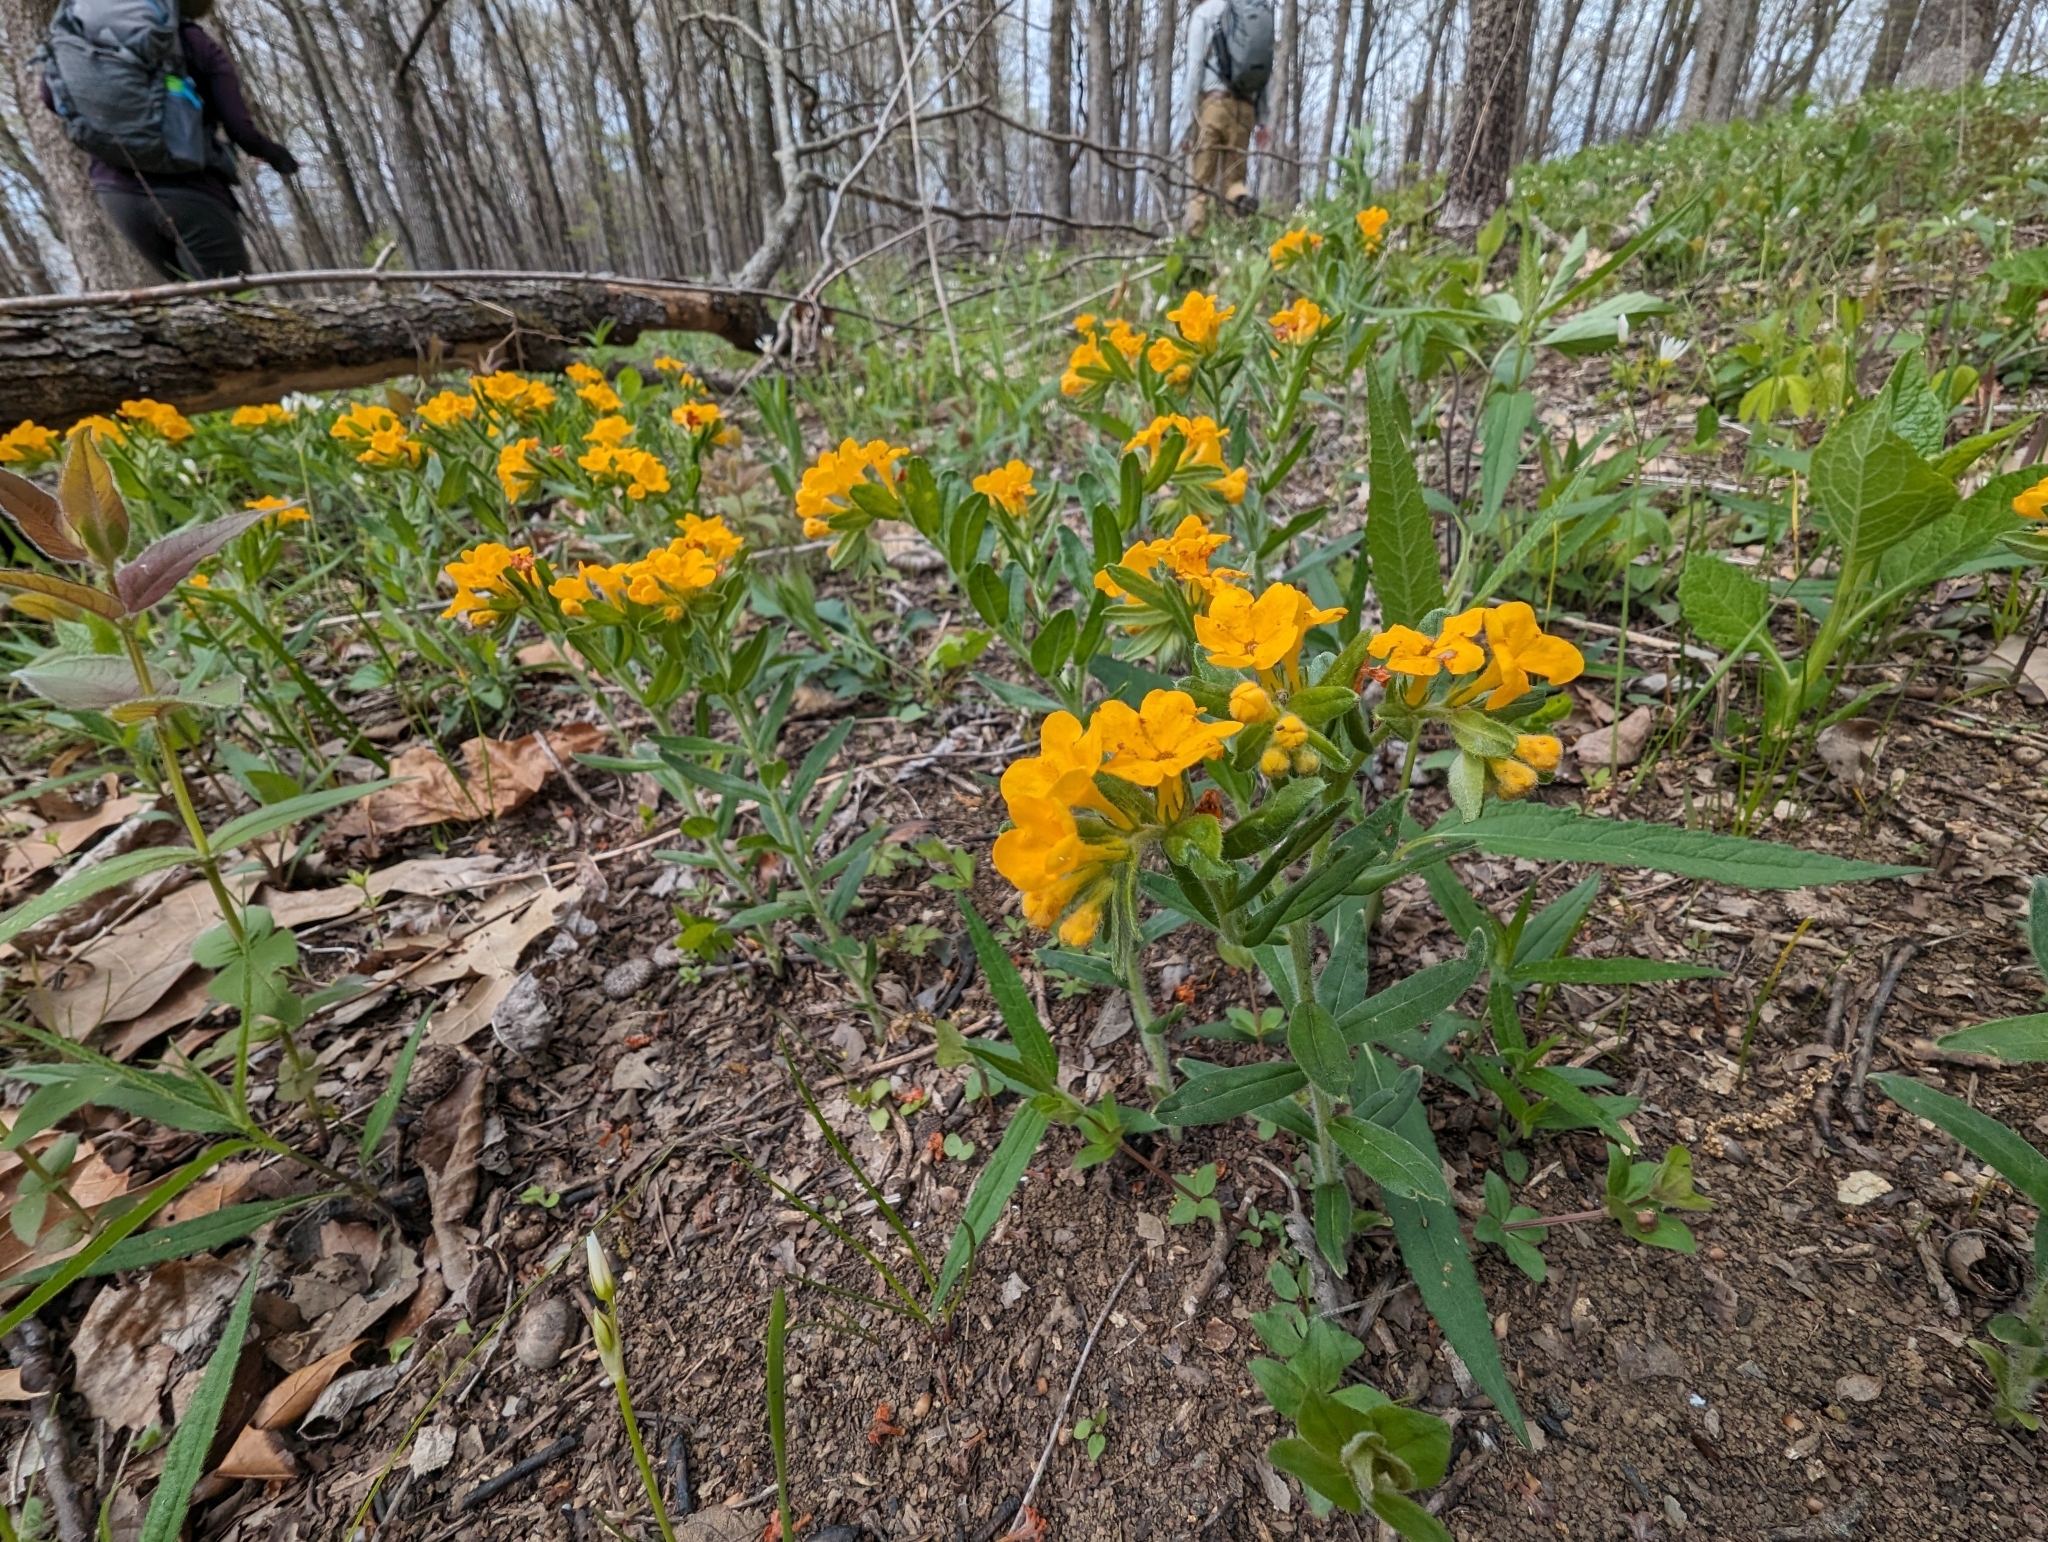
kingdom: Plantae
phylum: Tracheophyta
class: Magnoliopsida
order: Boraginales
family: Boraginaceae
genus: Lithospermum
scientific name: Lithospermum canescens
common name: Hoary puccoon
